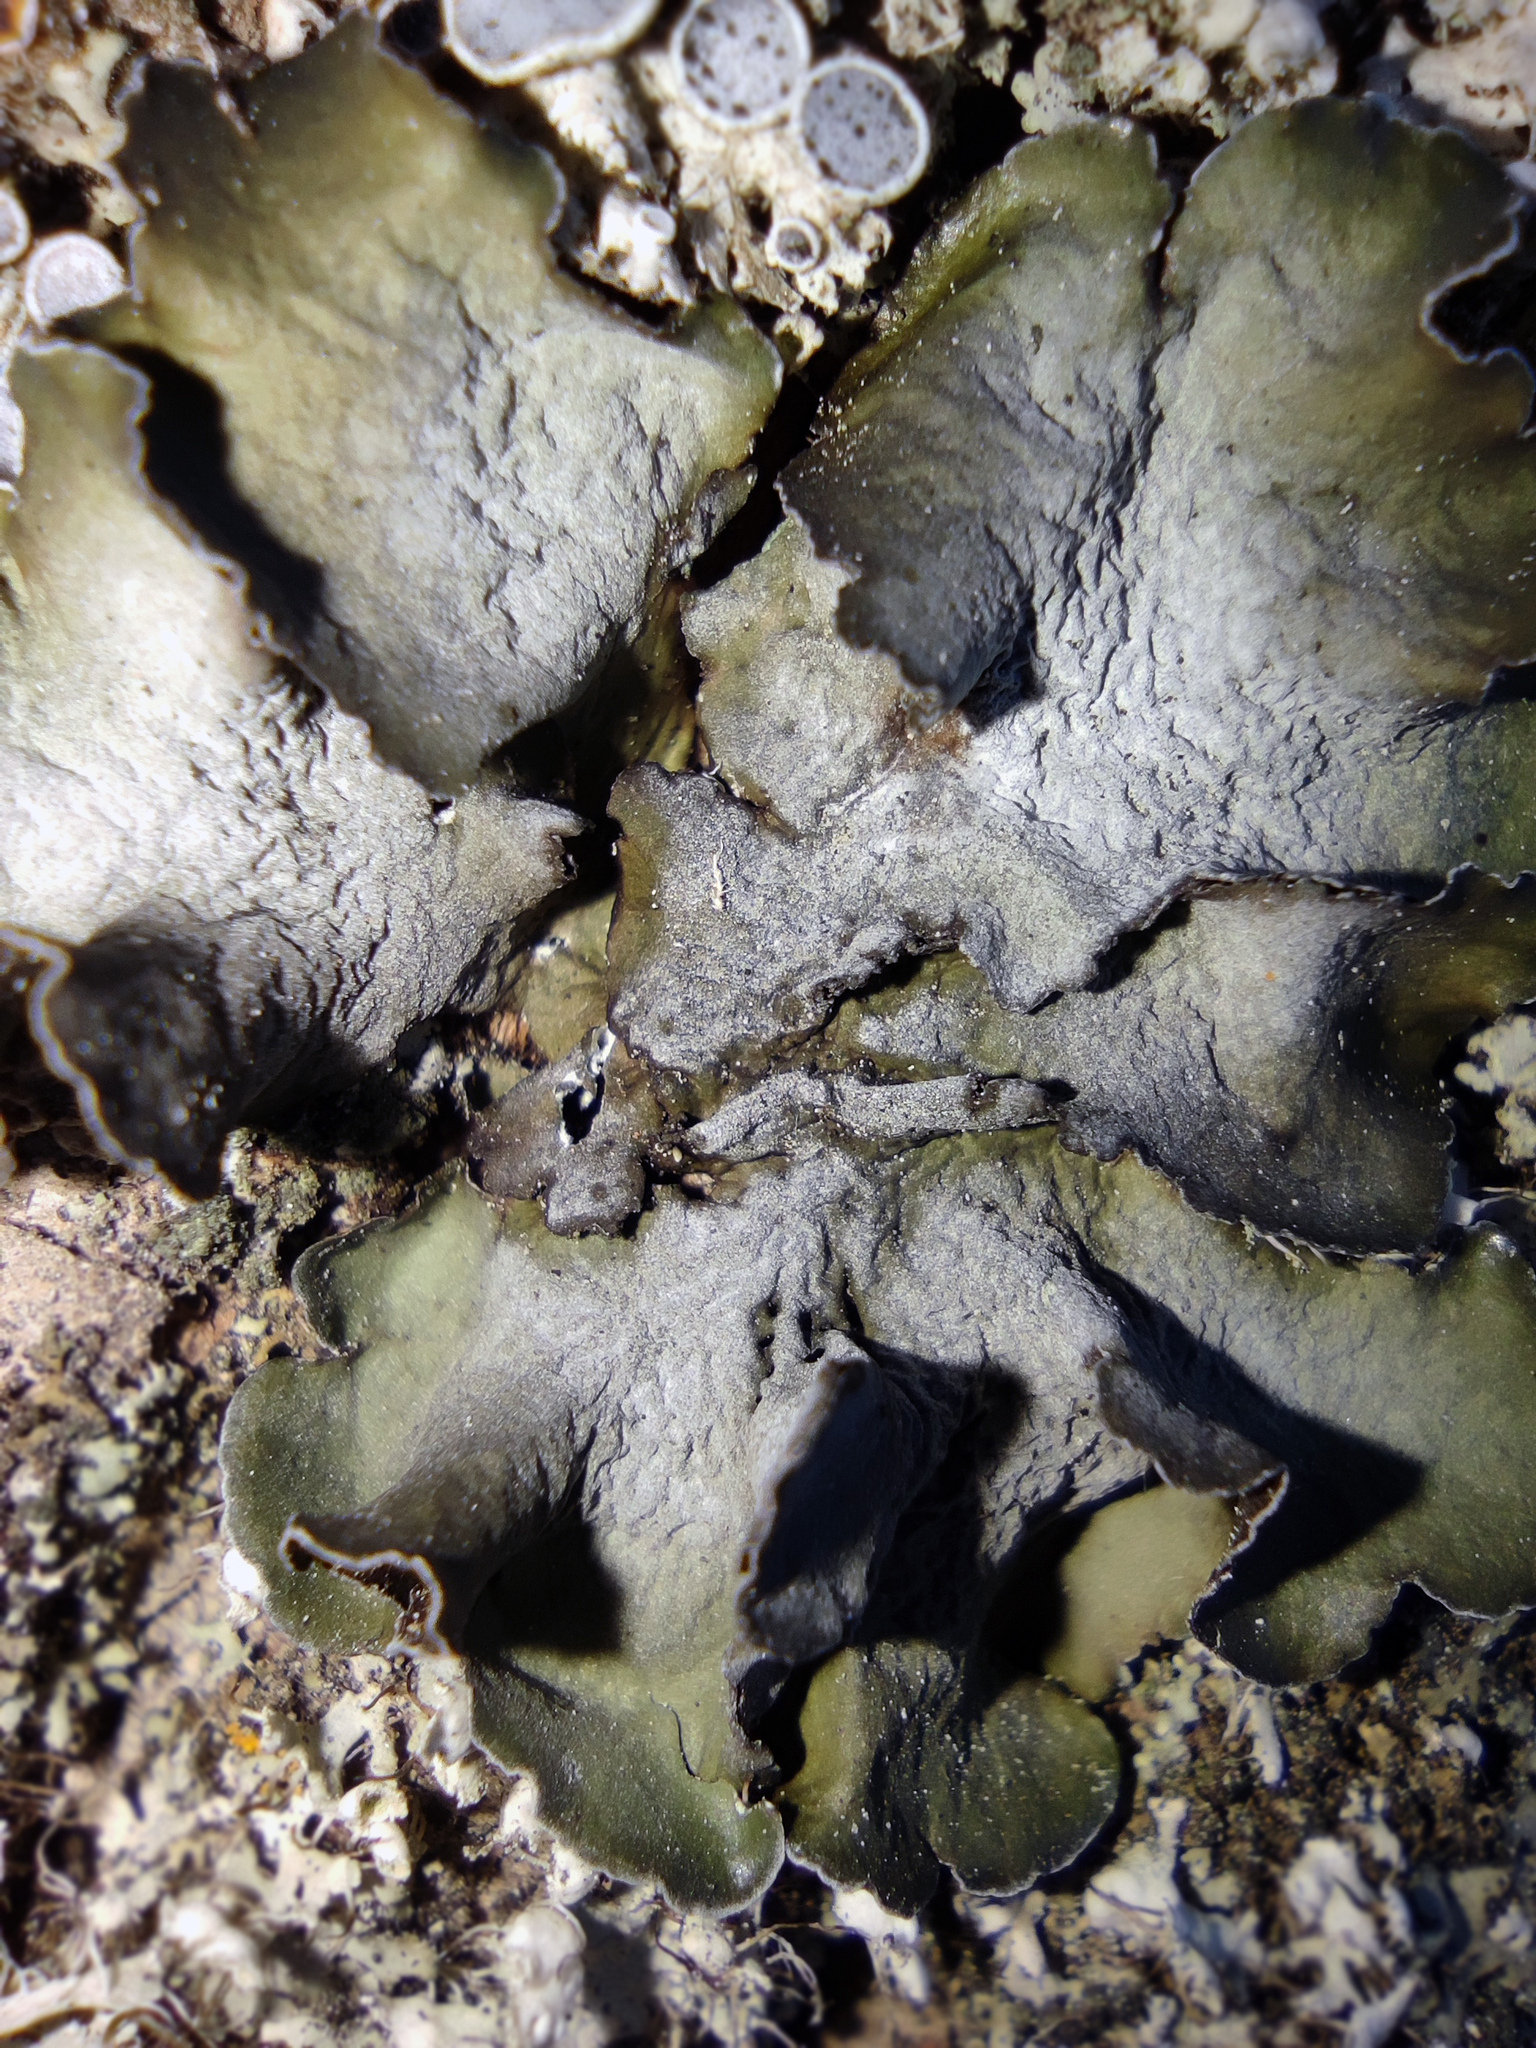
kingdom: Fungi
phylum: Ascomycota
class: Lecanoromycetes
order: Lecanorales
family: Parmeliaceae
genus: Pleurosticta
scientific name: Pleurosticta acetabulum
